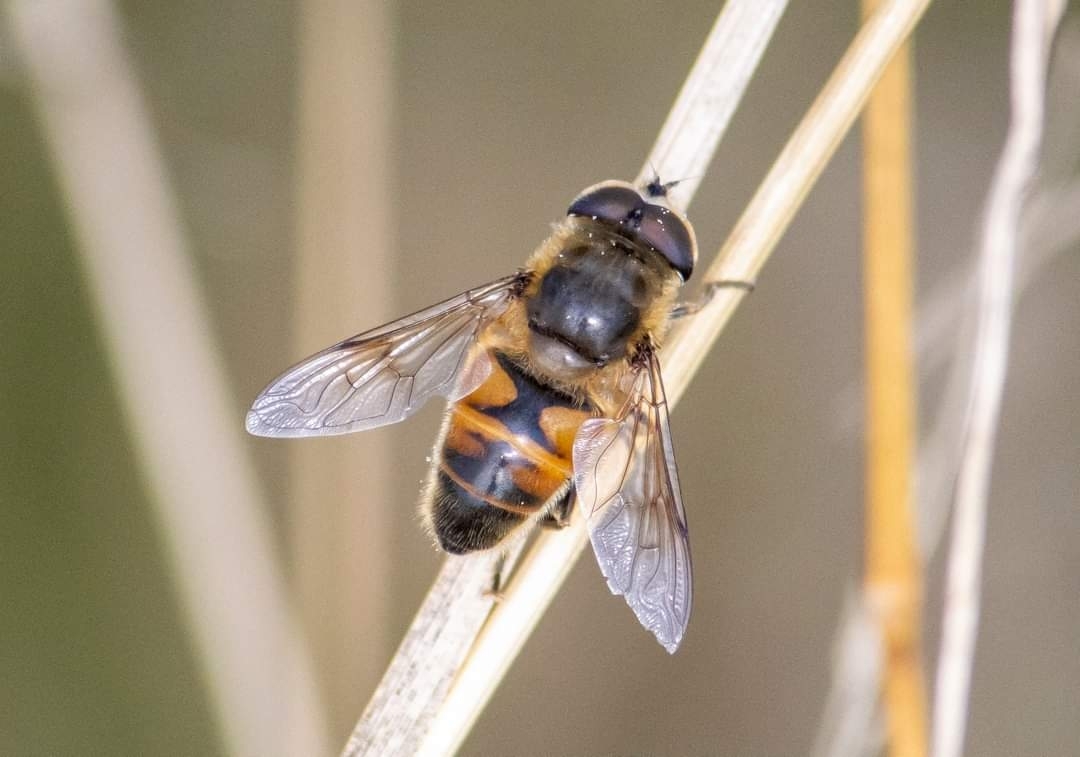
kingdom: Animalia
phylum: Arthropoda
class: Insecta
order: Diptera
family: Syrphidae
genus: Eristalis
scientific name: Eristalis tenax
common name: Drone fly
